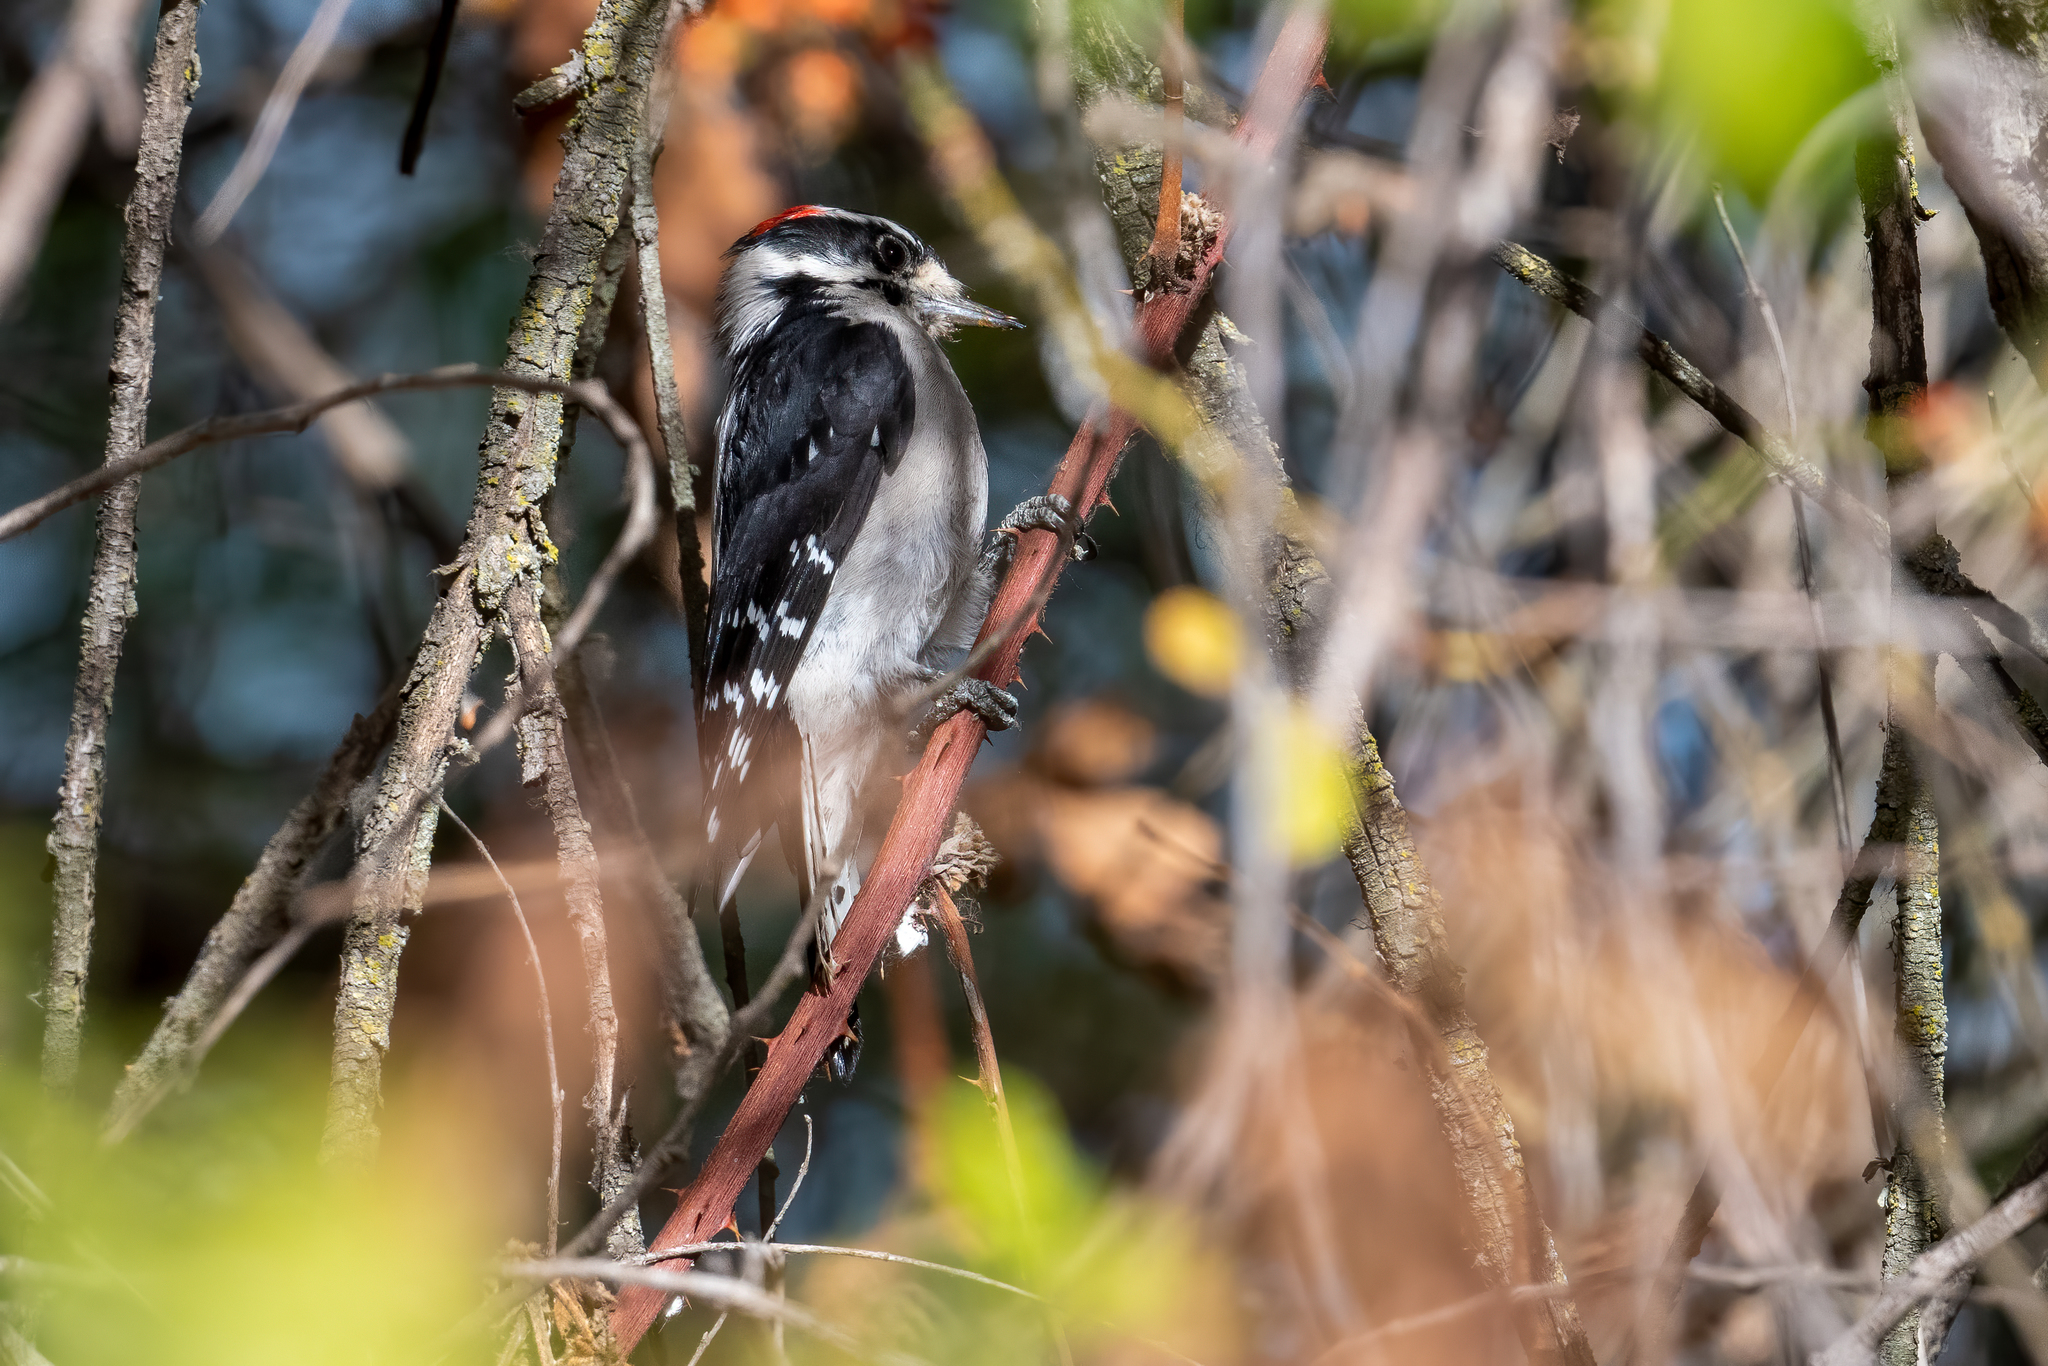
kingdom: Animalia
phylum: Chordata
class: Aves
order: Piciformes
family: Picidae
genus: Dryobates
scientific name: Dryobates pubescens
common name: Downy woodpecker
